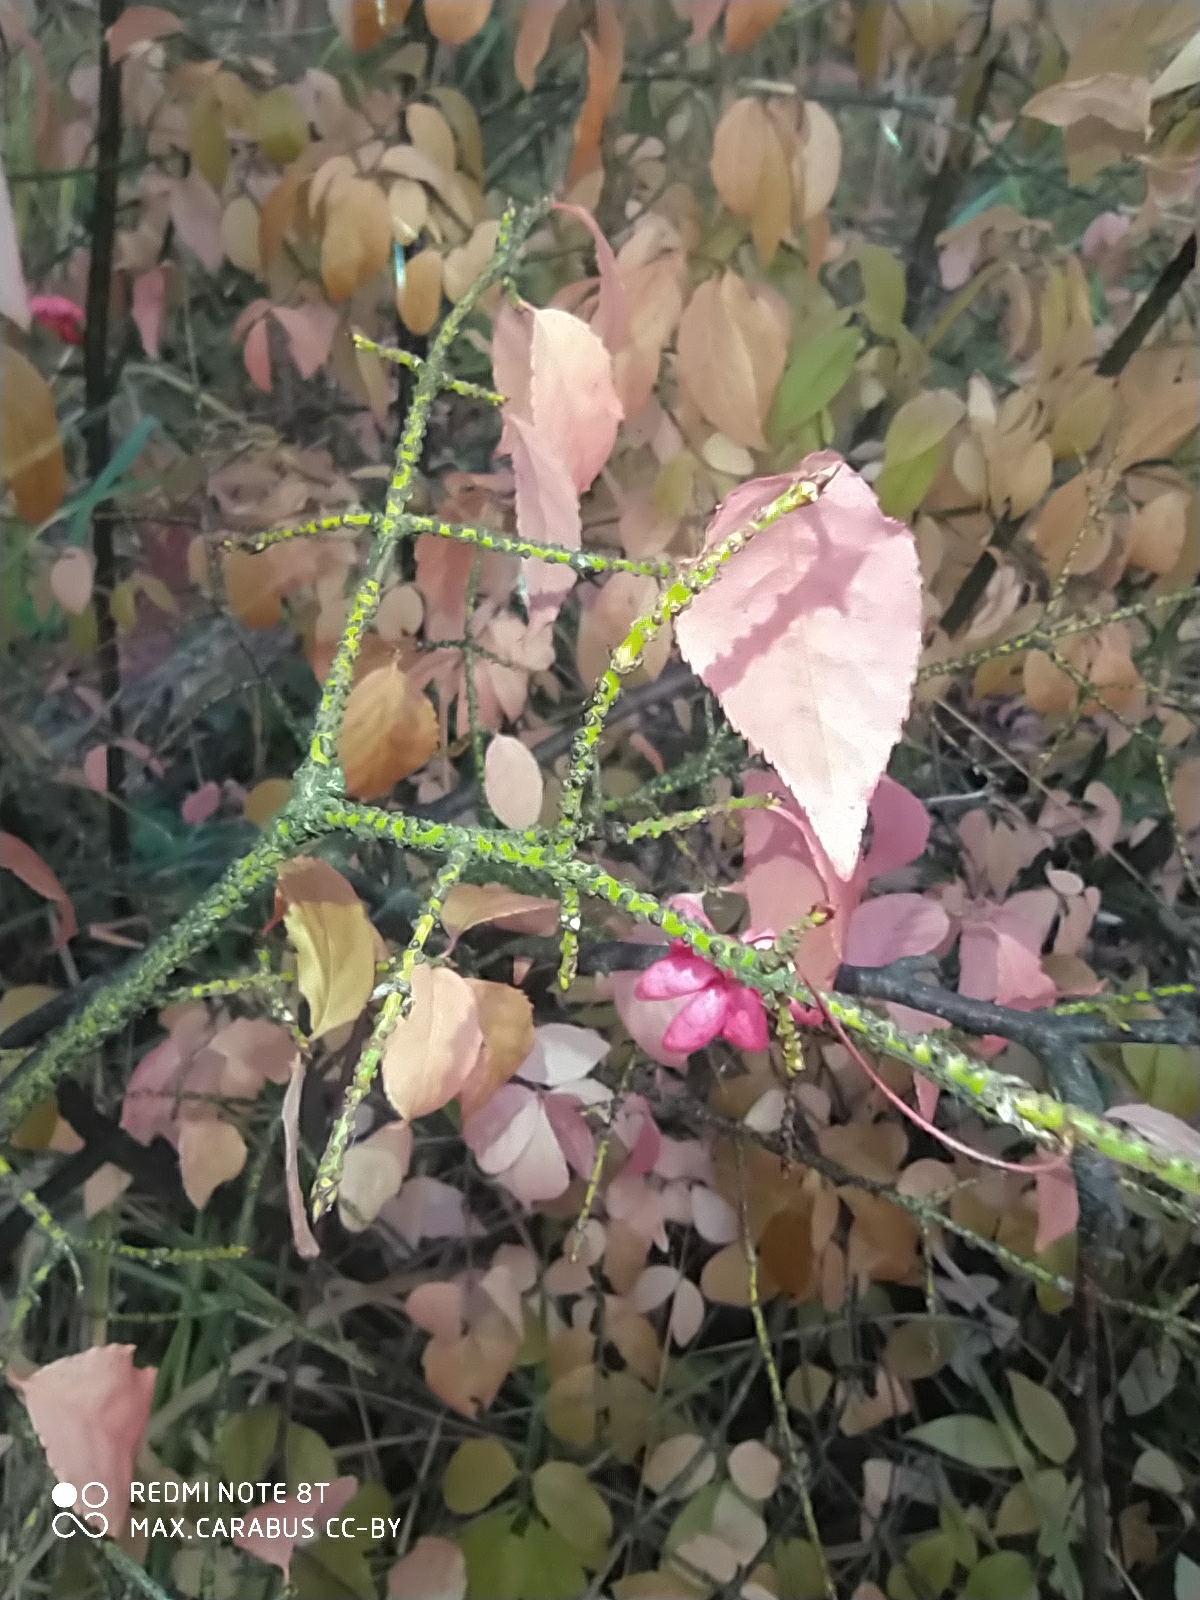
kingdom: Plantae
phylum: Tracheophyta
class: Magnoliopsida
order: Celastrales
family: Celastraceae
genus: Euonymus
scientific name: Euonymus verrucosus
